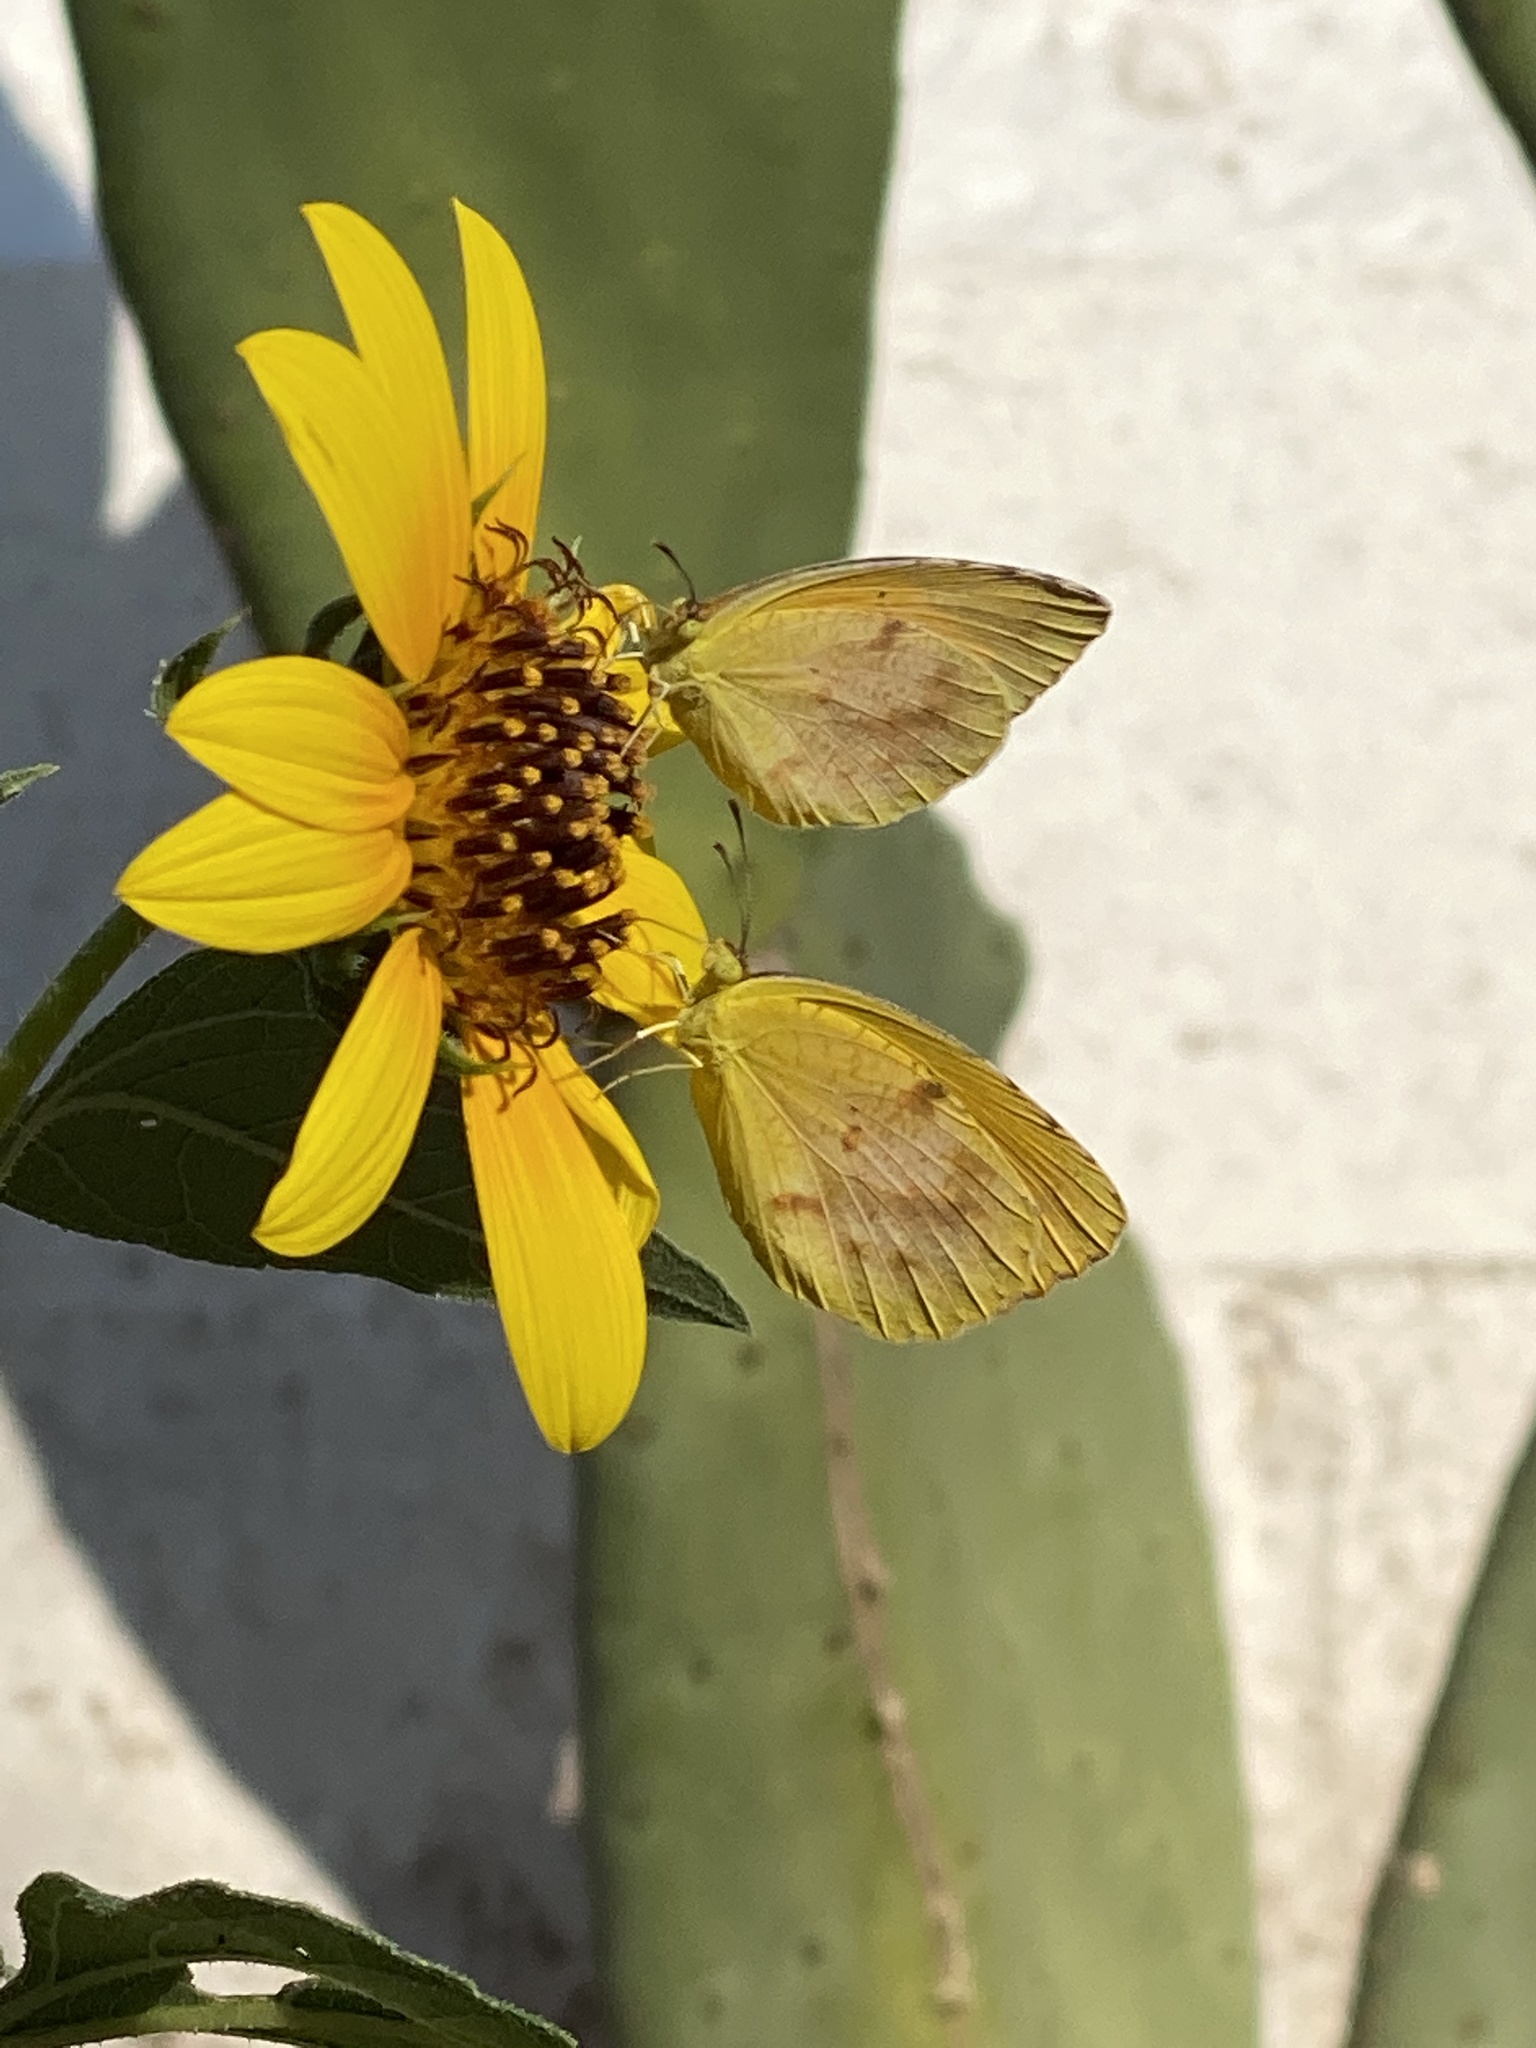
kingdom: Animalia
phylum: Arthropoda
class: Insecta
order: Lepidoptera
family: Pieridae
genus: Abaeis
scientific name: Abaeis nicippe
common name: Sleepy orange
